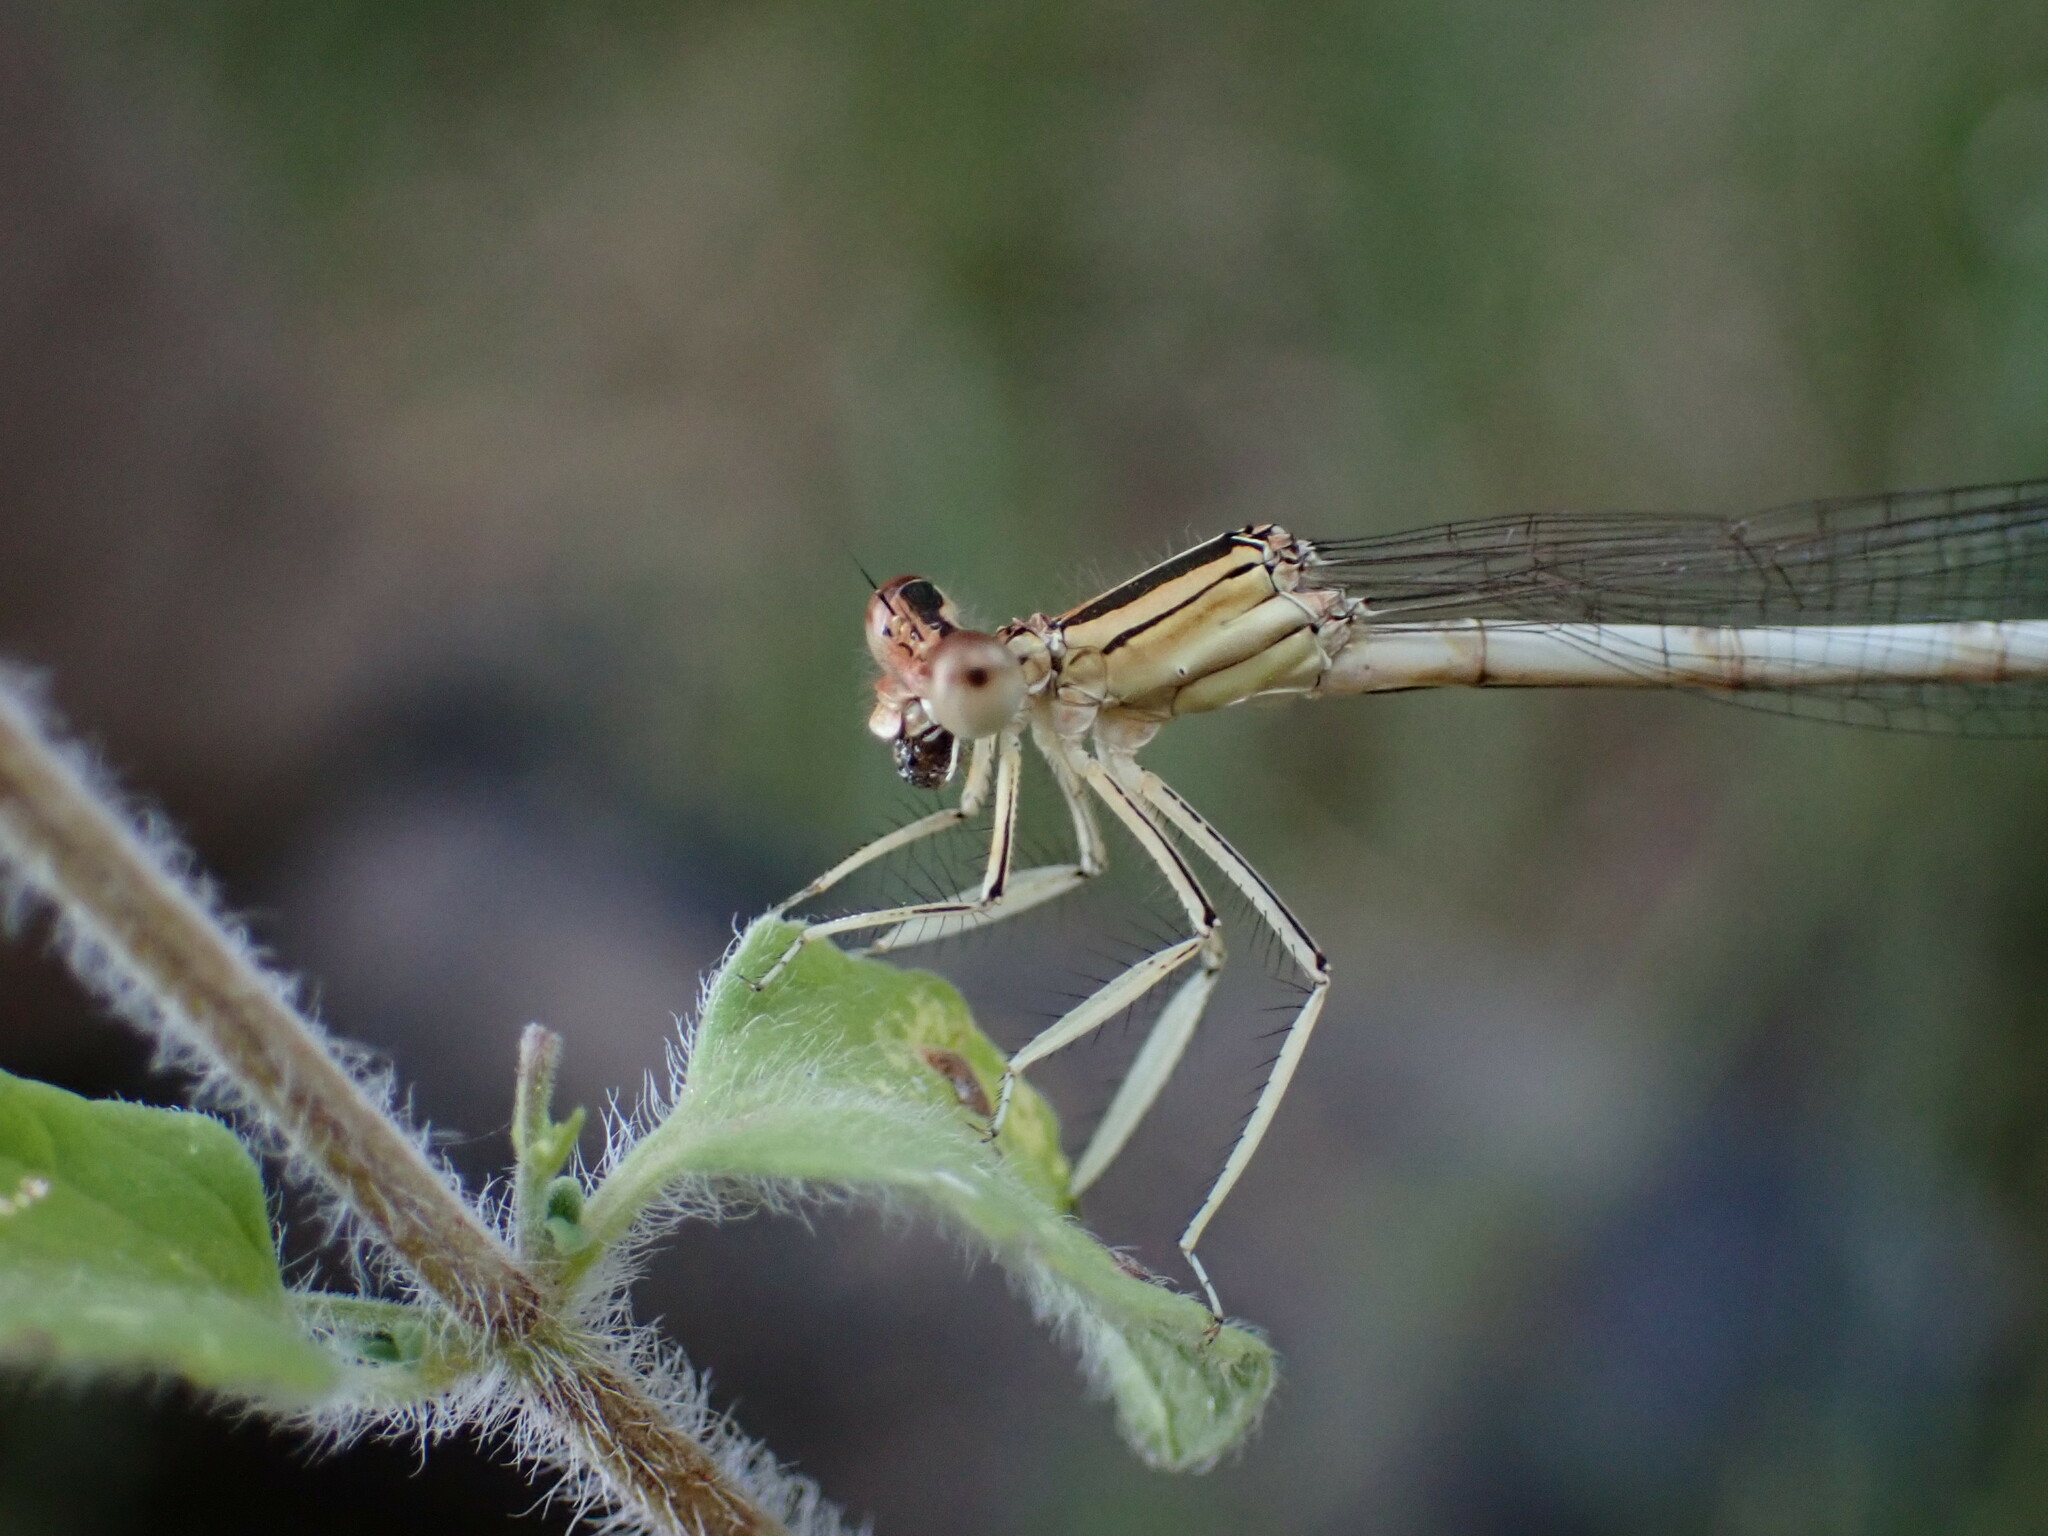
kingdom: Animalia
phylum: Arthropoda
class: Insecta
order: Odonata
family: Platycnemididae
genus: Platycnemis
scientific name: Platycnemis latipes
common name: White featherleg
